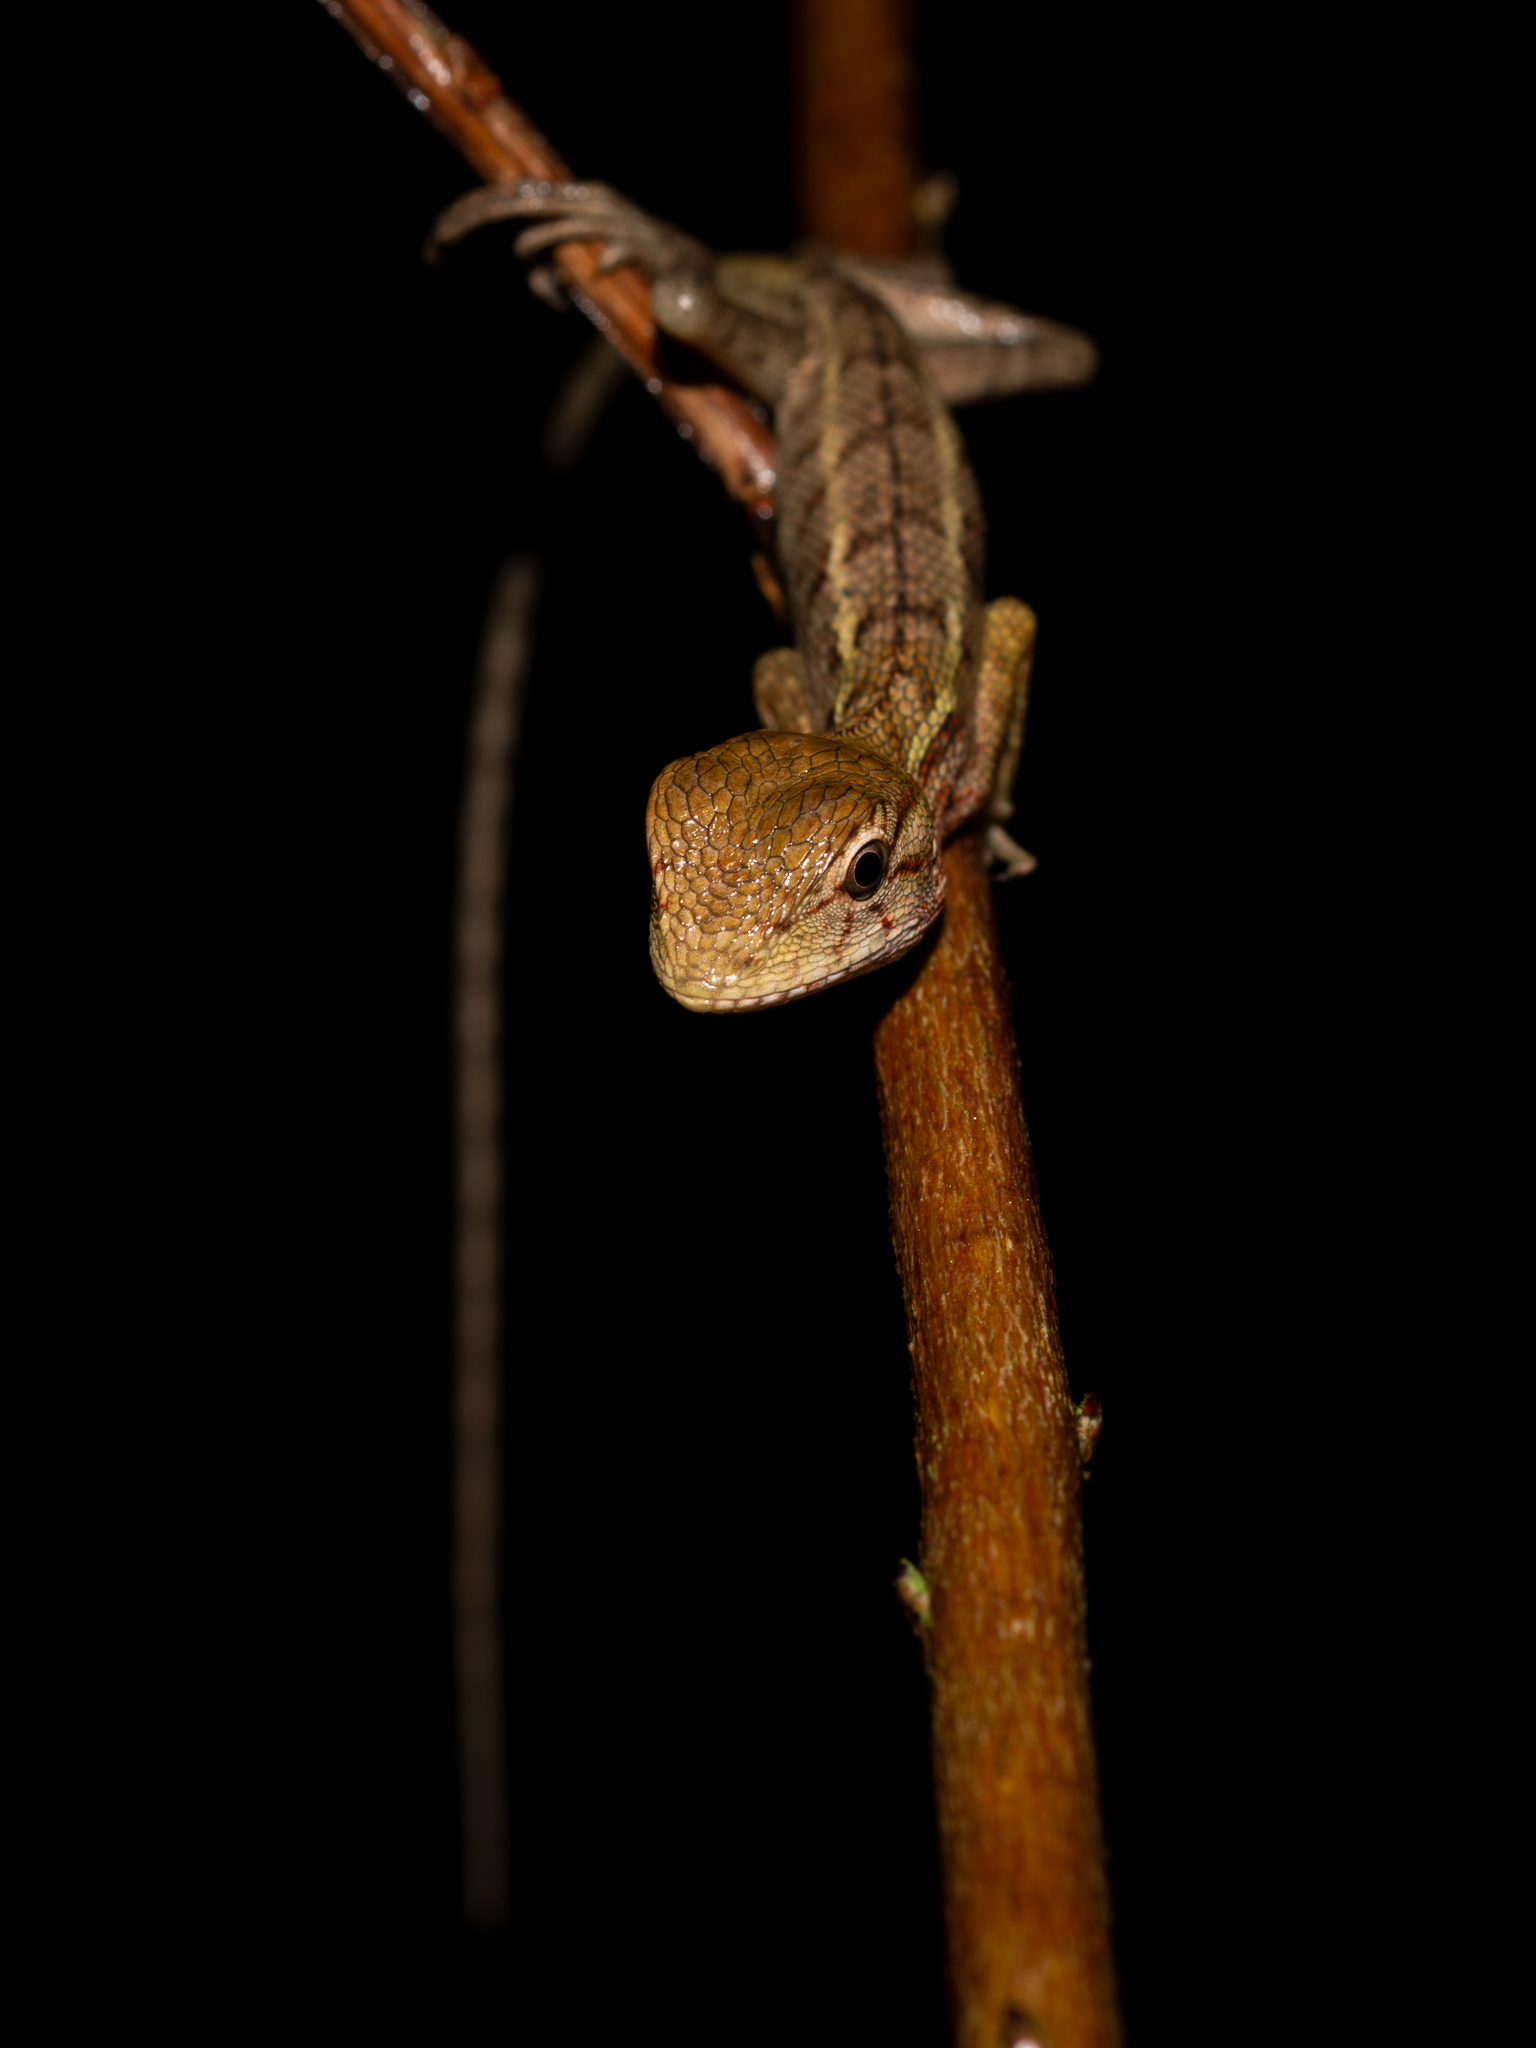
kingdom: Animalia
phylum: Chordata
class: Squamata
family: Agamidae
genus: Calotes
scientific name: Calotes versicolor
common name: Oriental garden lizard
